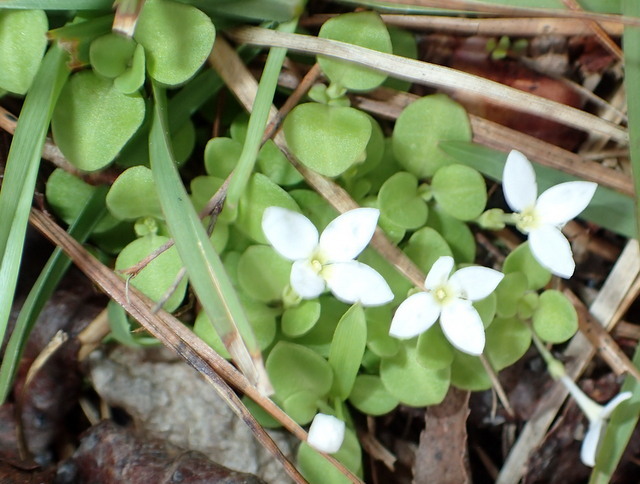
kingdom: Plantae
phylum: Tracheophyta
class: Magnoliopsida
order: Gentianales
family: Rubiaceae
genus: Houstonia
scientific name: Houstonia procumbens
